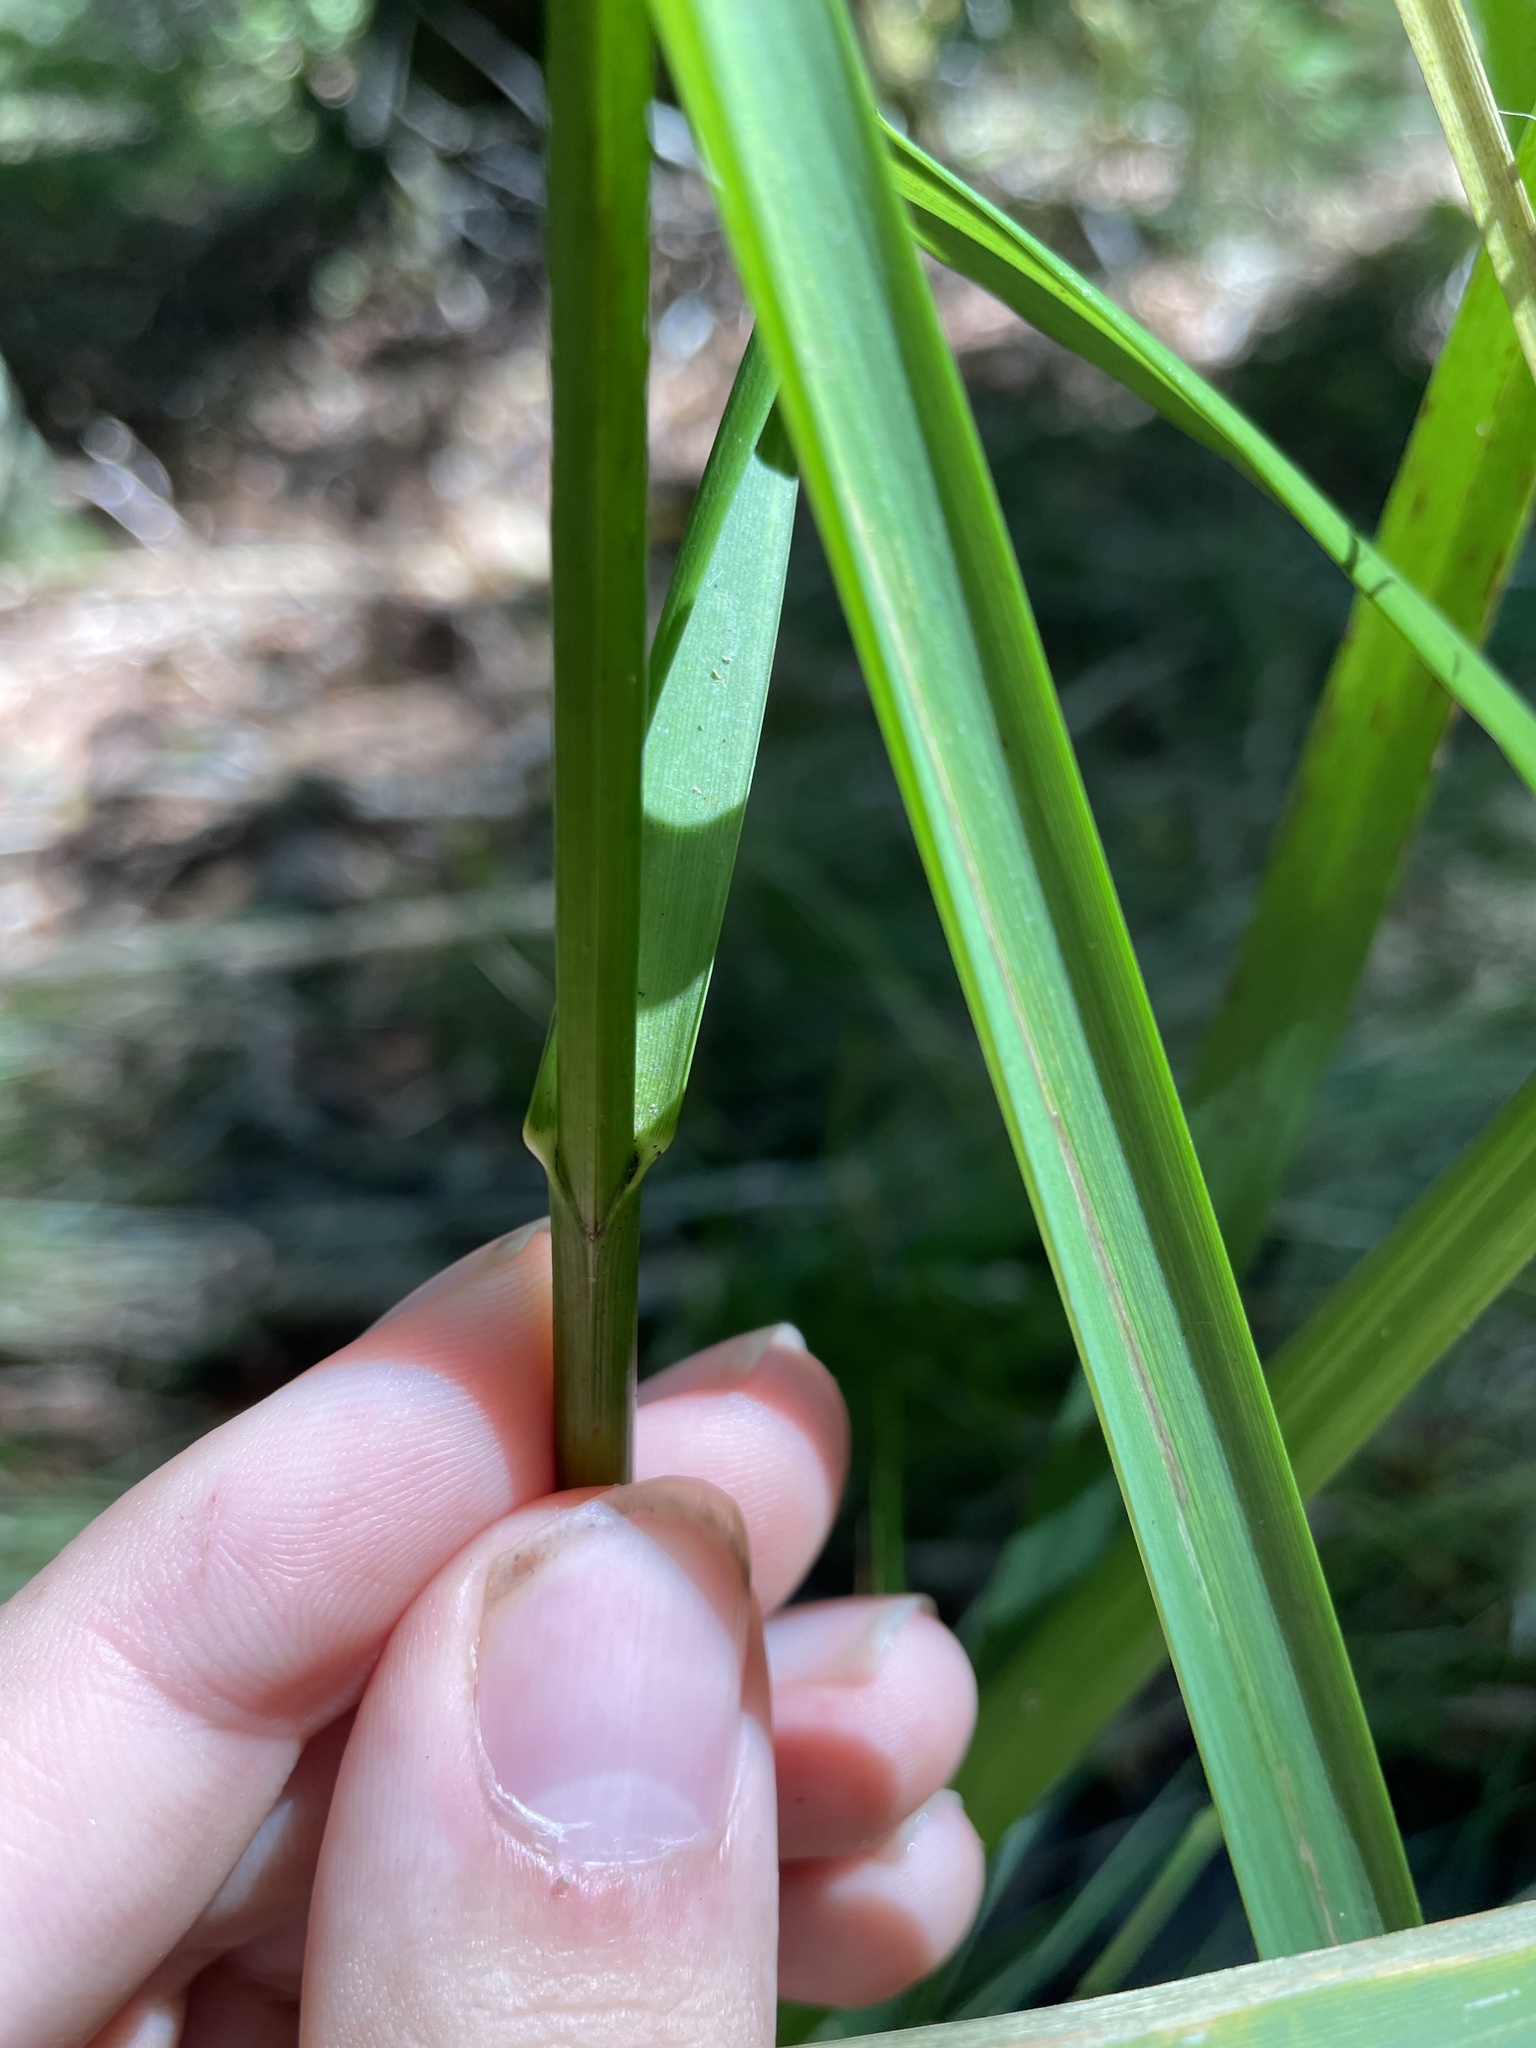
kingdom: Plantae
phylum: Tracheophyta
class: Liliopsida
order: Poales
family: Poaceae
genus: Glyceria
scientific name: Glyceria nubigena
